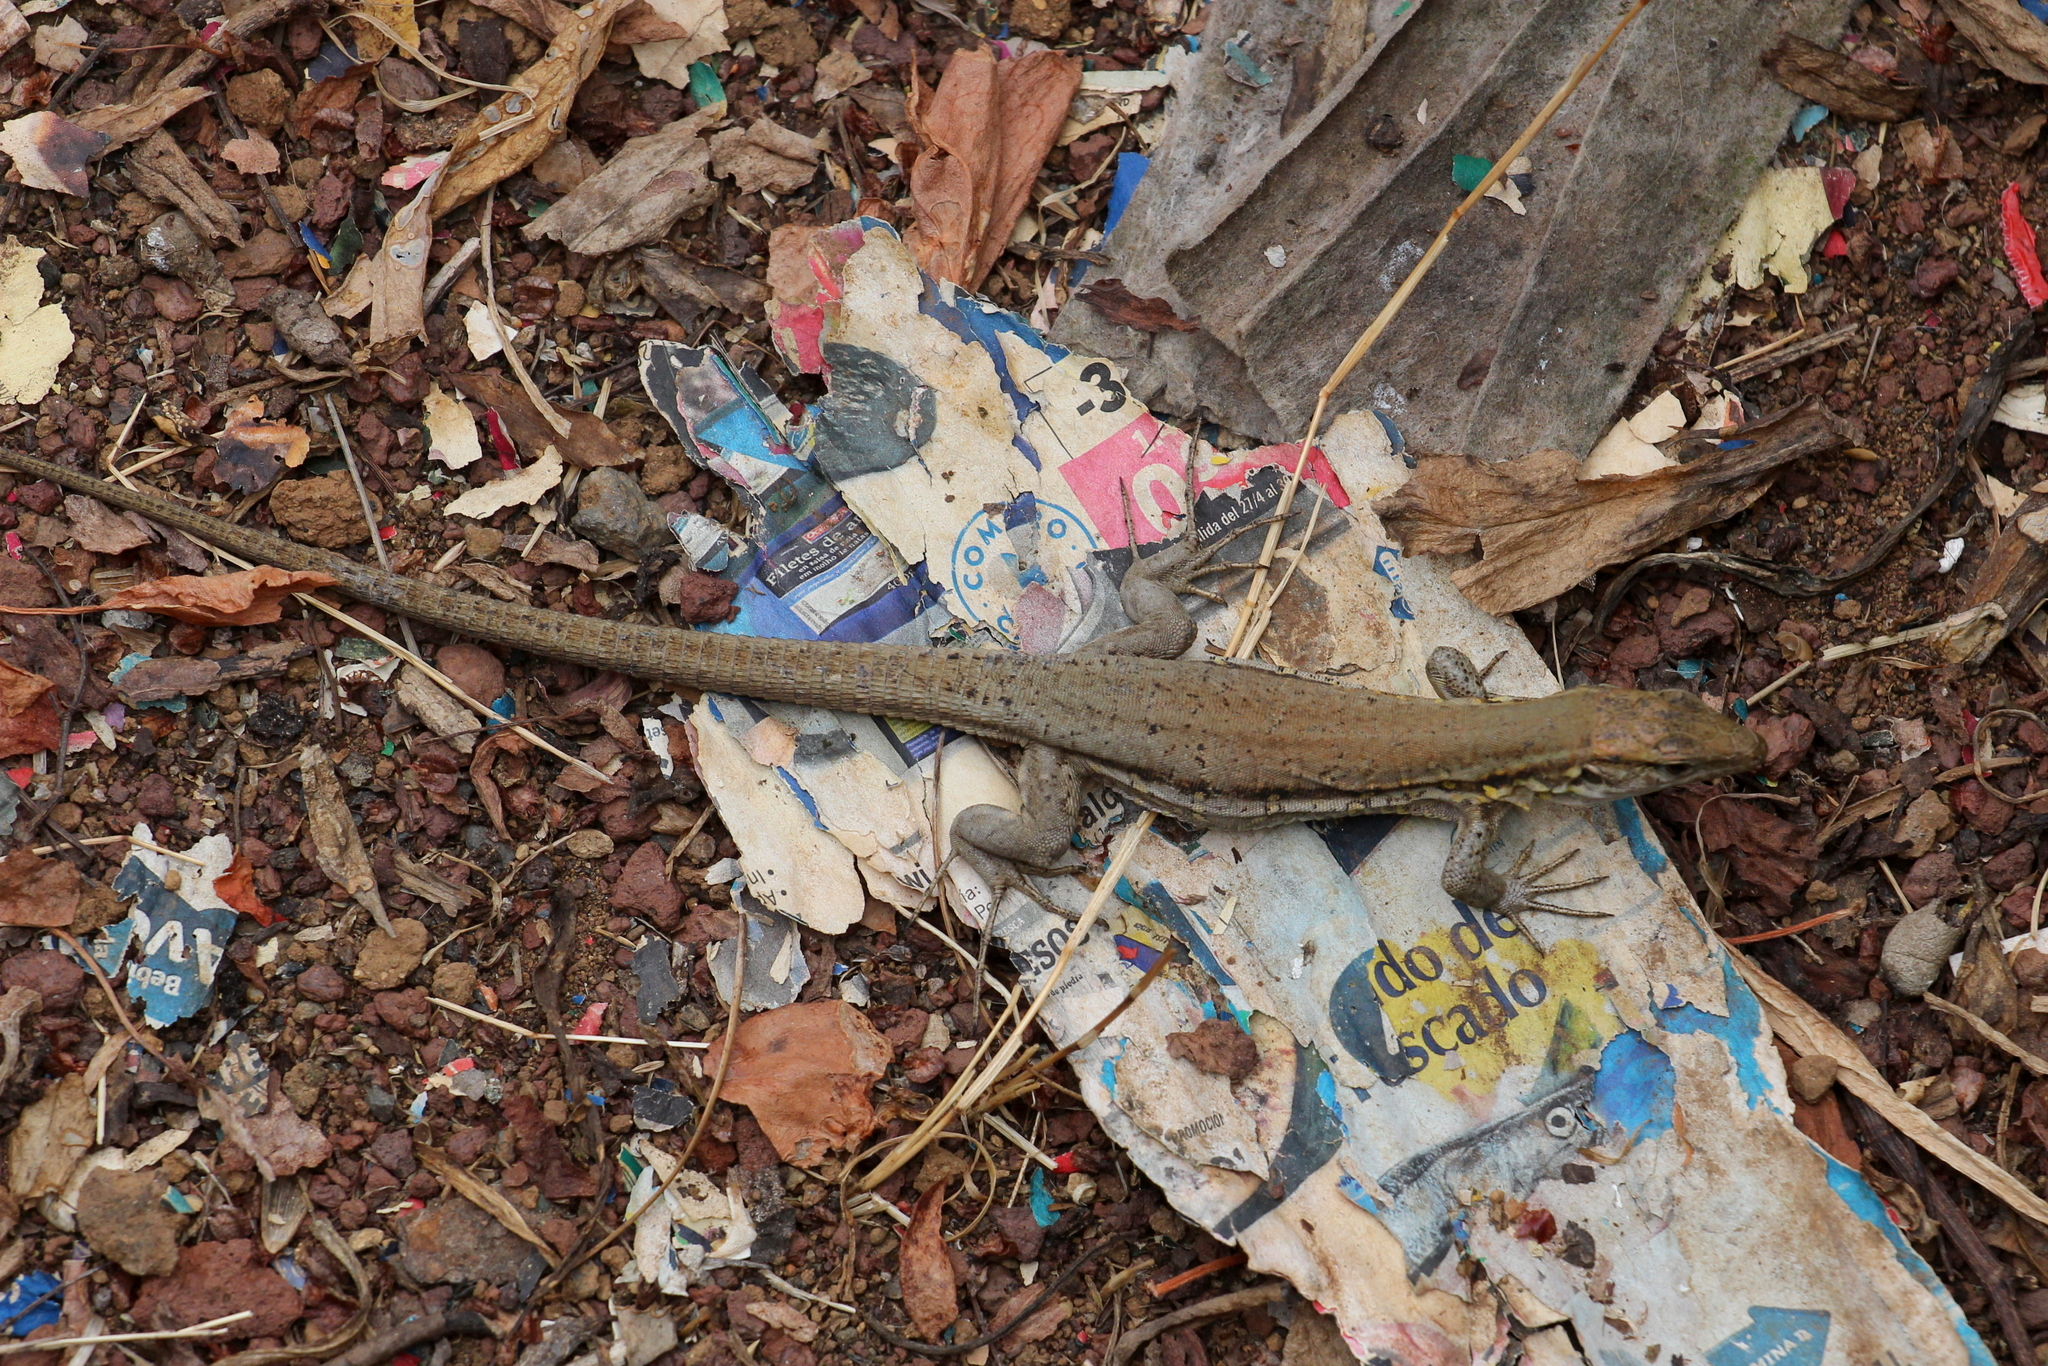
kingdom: Animalia
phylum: Chordata
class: Squamata
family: Lacertidae
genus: Gallotia
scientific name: Gallotia galloti
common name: Gallot's lizard
